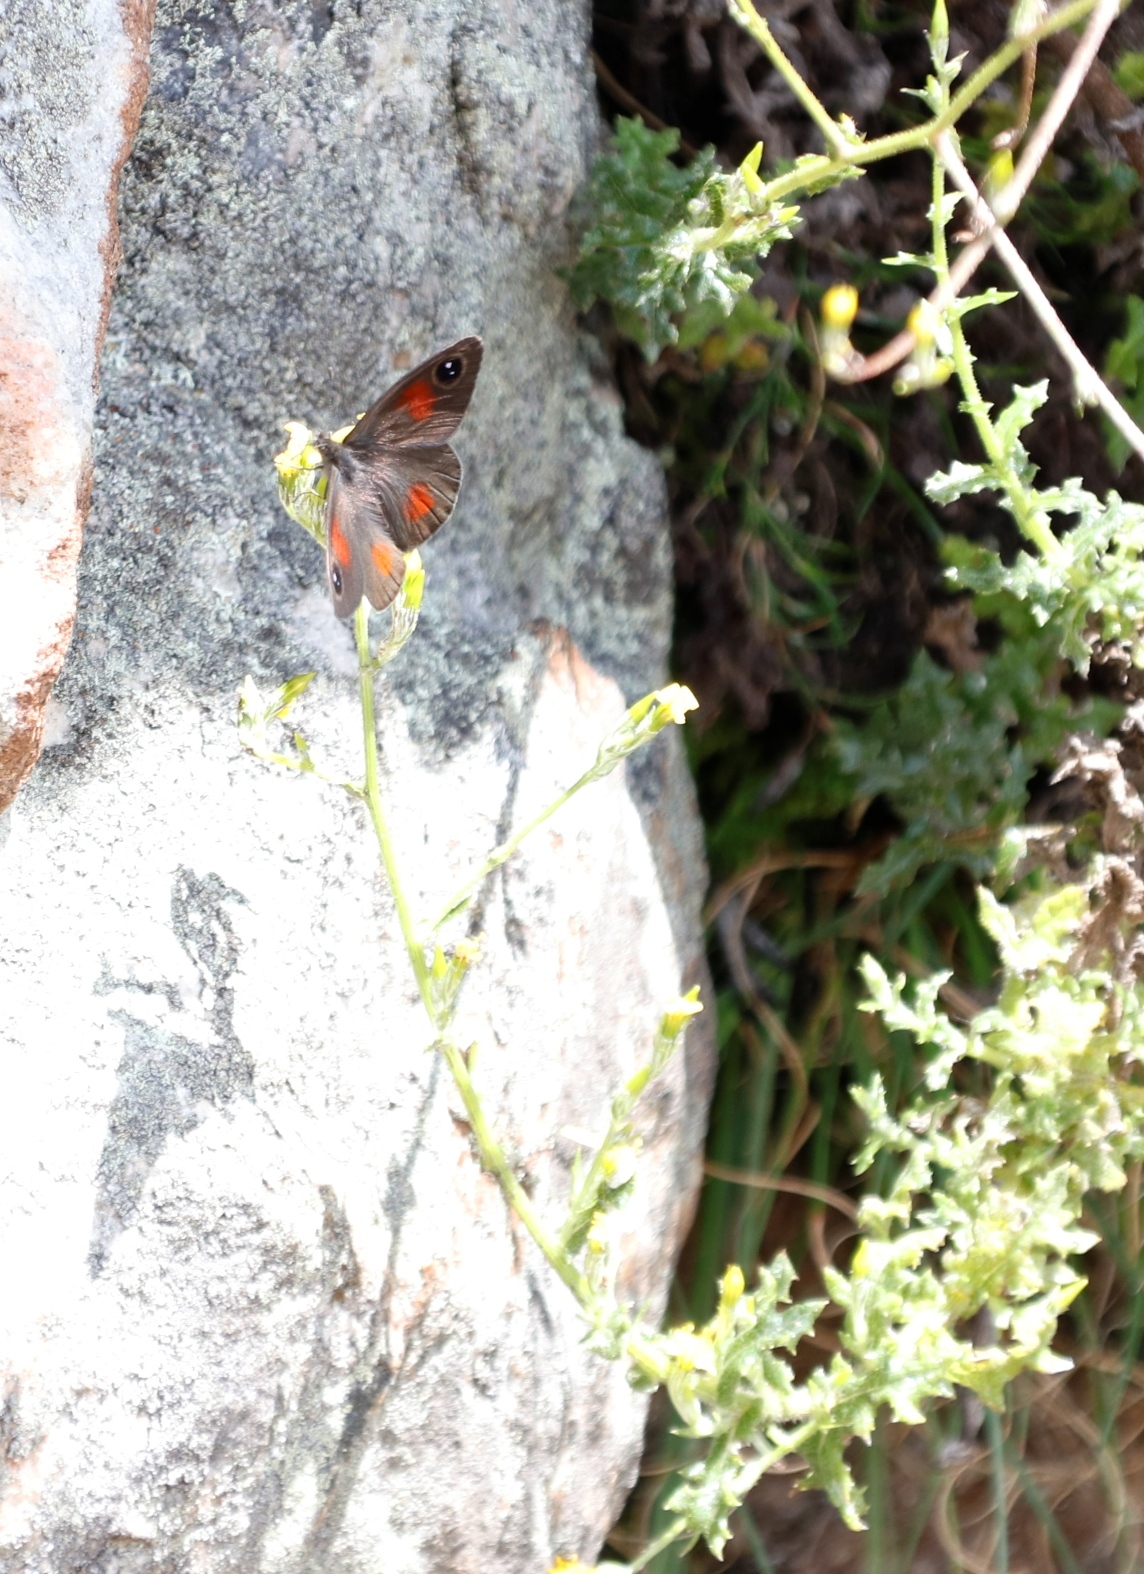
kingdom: Animalia
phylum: Arthropoda
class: Insecta
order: Lepidoptera
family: Nymphalidae
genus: Stygionympha
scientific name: Stygionympha vigilans
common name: Western hillside brown
